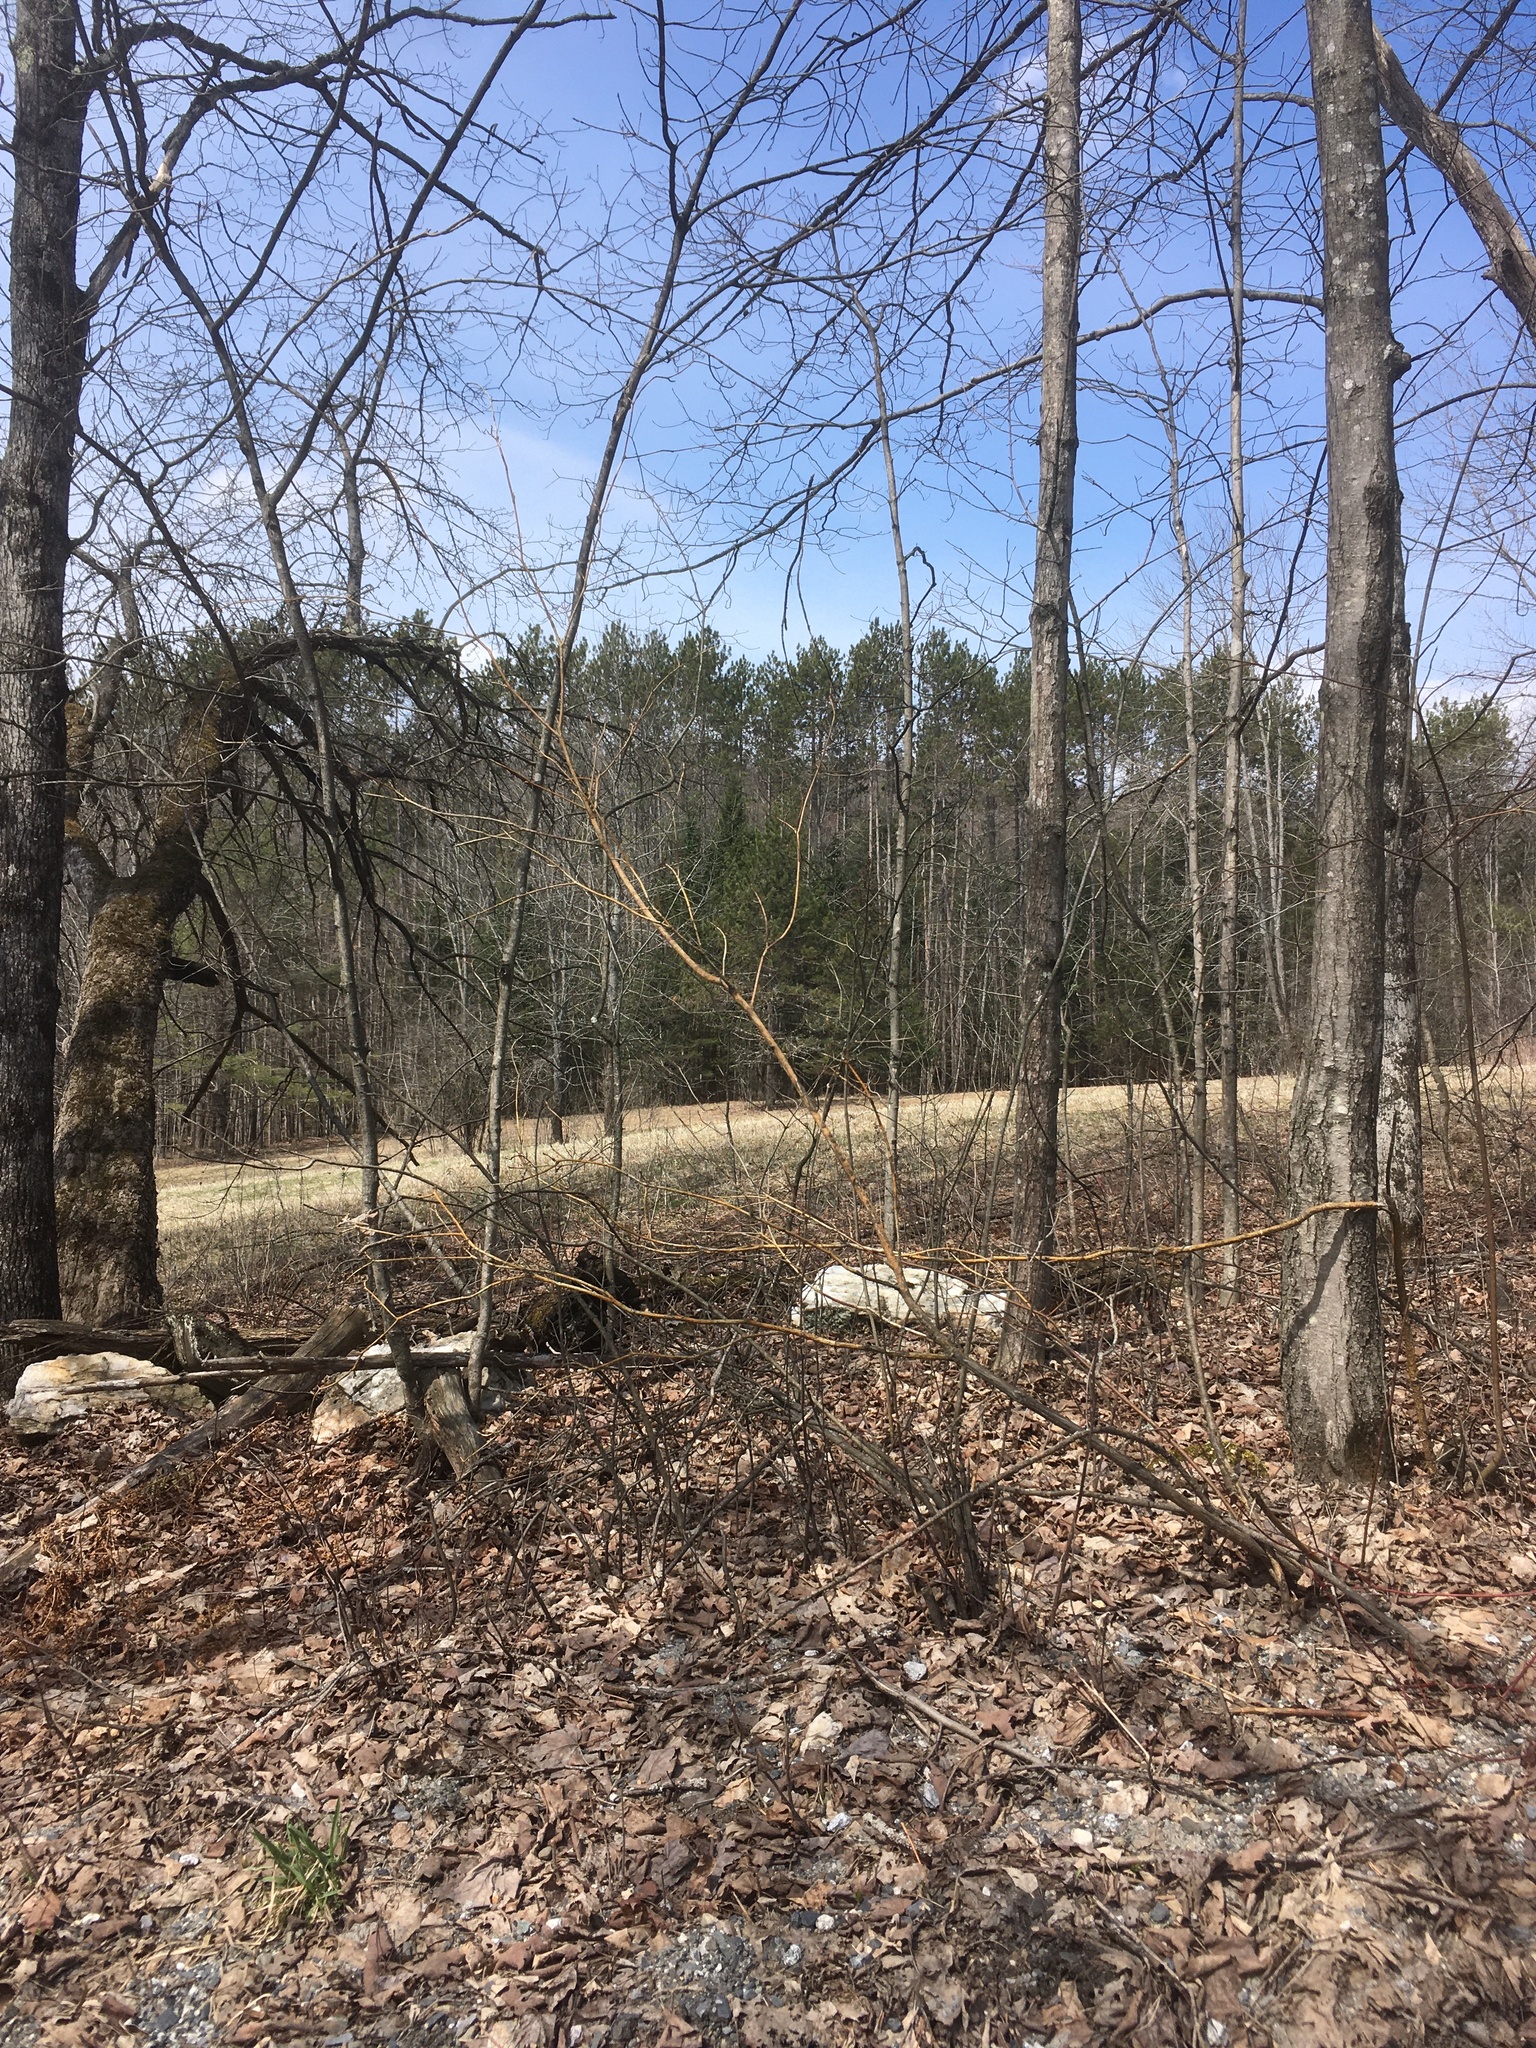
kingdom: Plantae
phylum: Tracheophyta
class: Magnoliopsida
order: Cornales
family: Cornaceae
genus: Cornus
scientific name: Cornus alternifolia
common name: Pagoda dogwood
